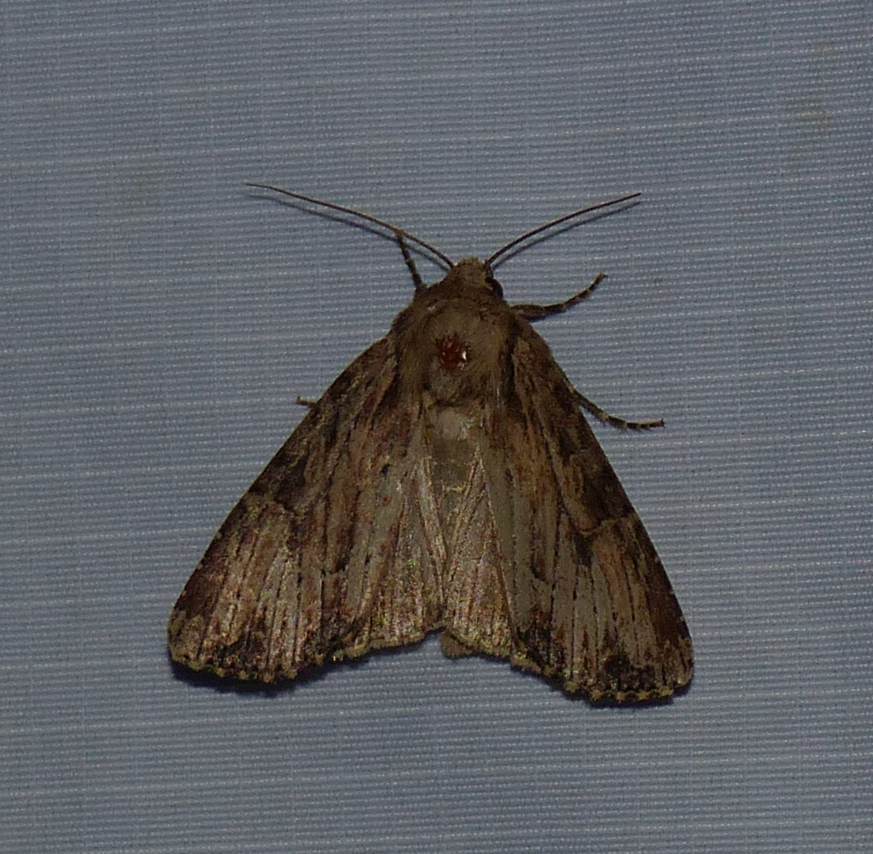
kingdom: Animalia
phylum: Arthropoda
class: Insecta
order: Lepidoptera
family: Noctuidae
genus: Apamea
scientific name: Apamea lignicolora
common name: Wood-colored apamea moth
